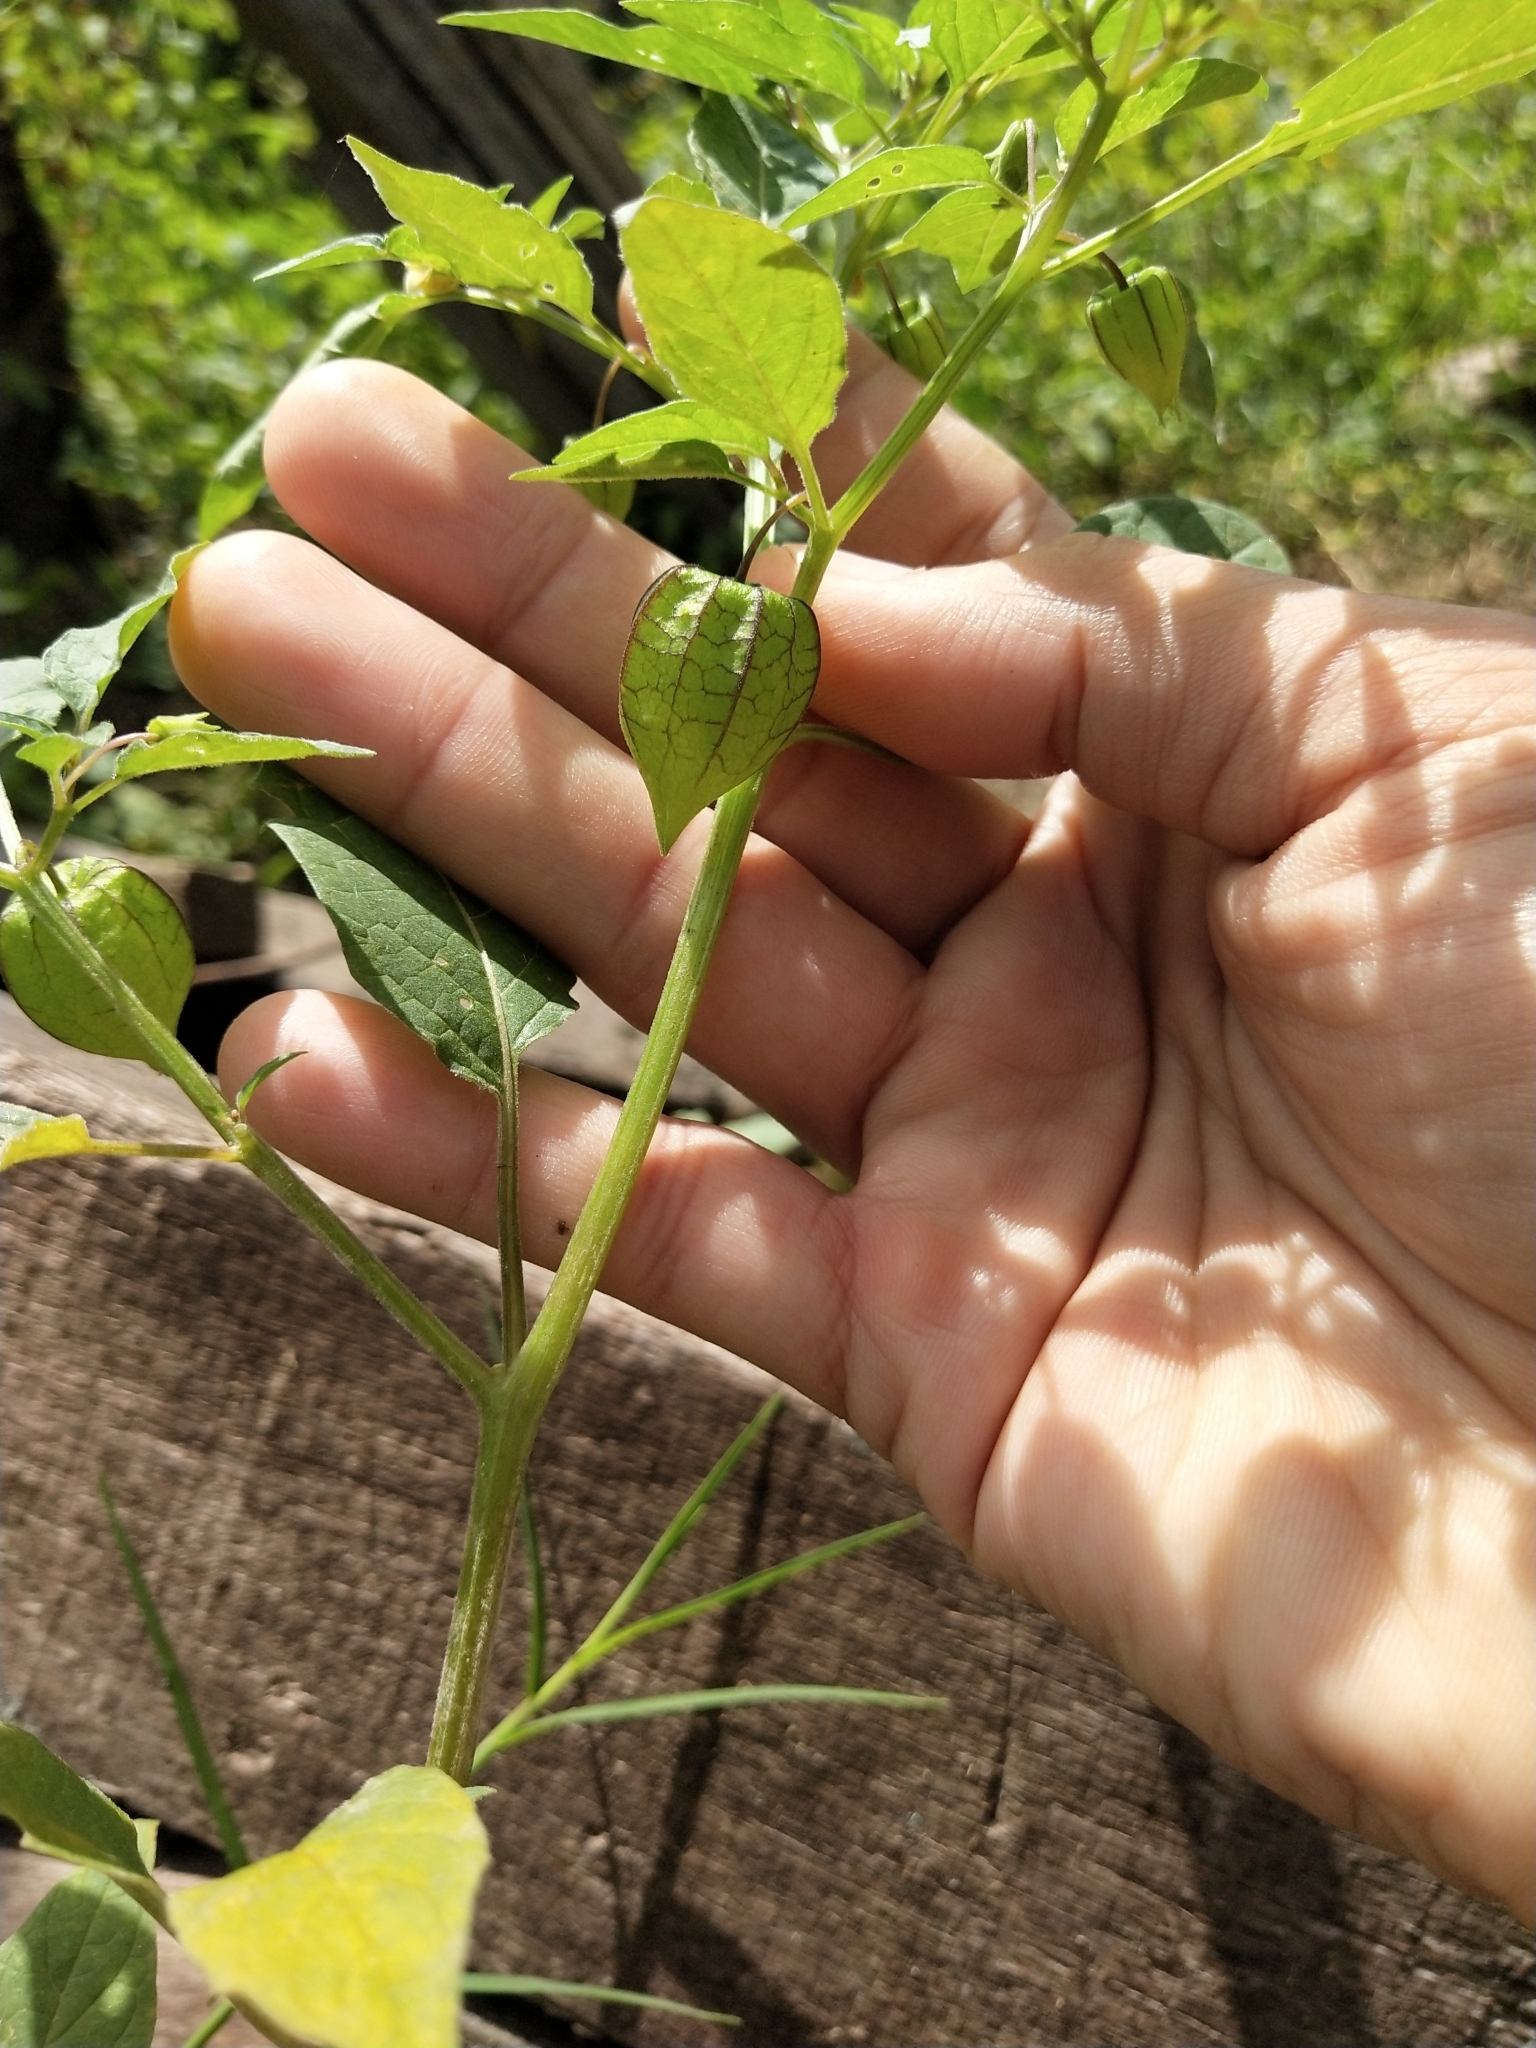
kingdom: Plantae
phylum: Tracheophyta
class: Magnoliopsida
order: Solanales
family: Solanaceae
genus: Physalis
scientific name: Physalis angulata
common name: Angular winter-cherry
